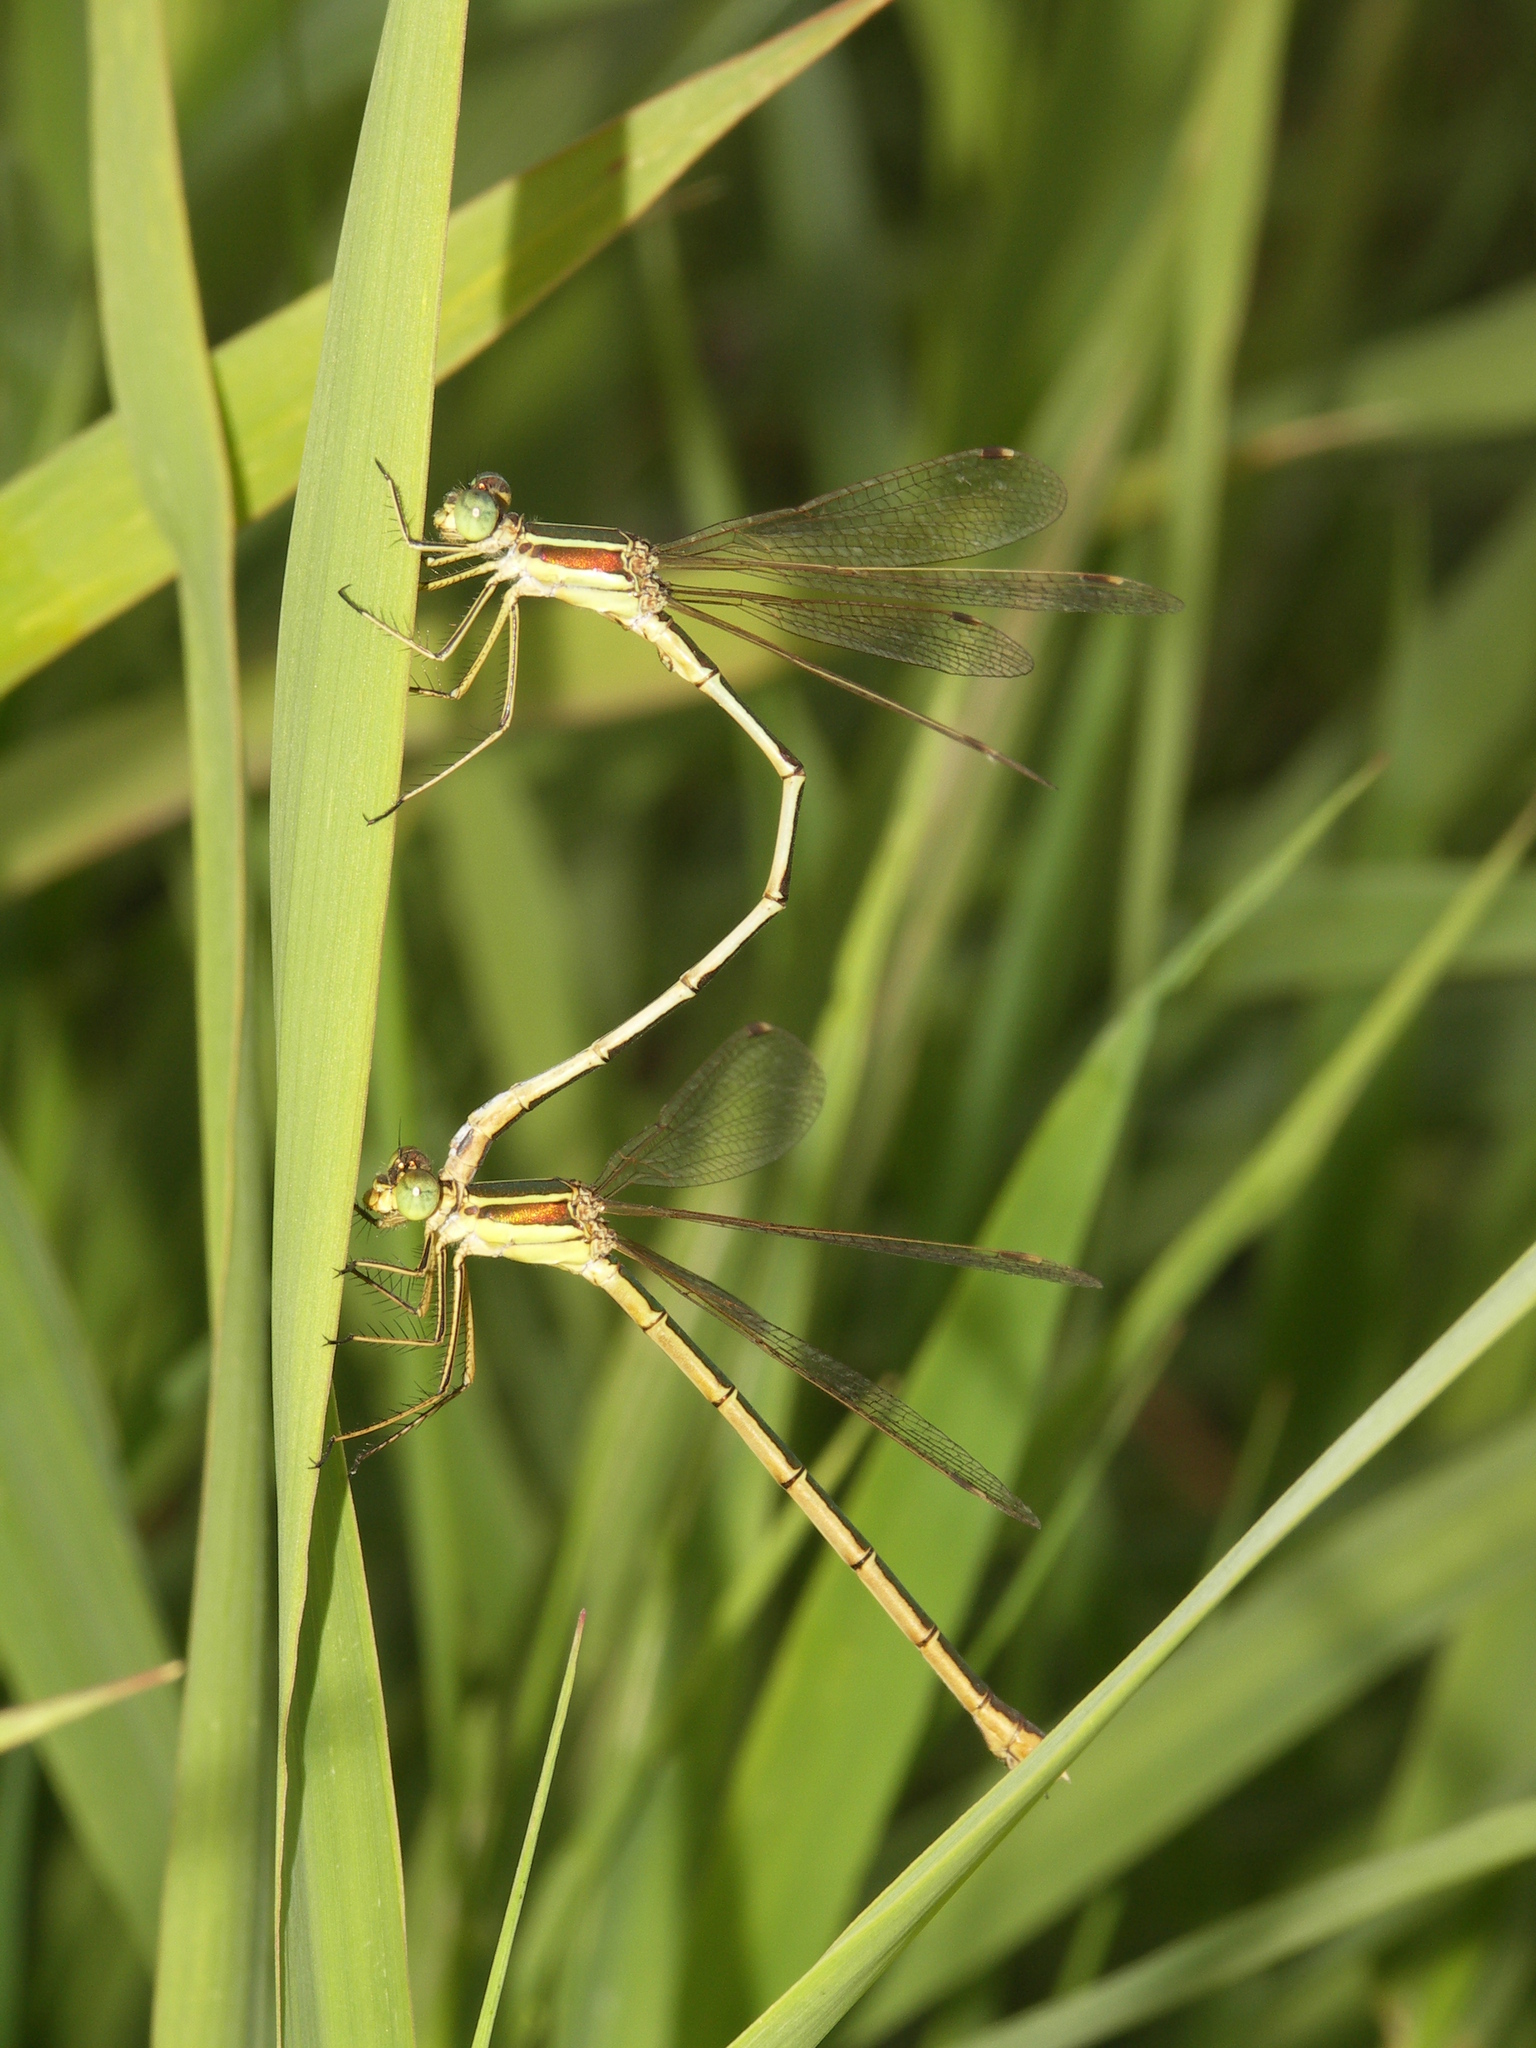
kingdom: Animalia
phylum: Arthropoda
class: Insecta
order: Odonata
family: Lestidae
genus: Lestes
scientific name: Lestes barbarus
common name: Migrant spreadwing
